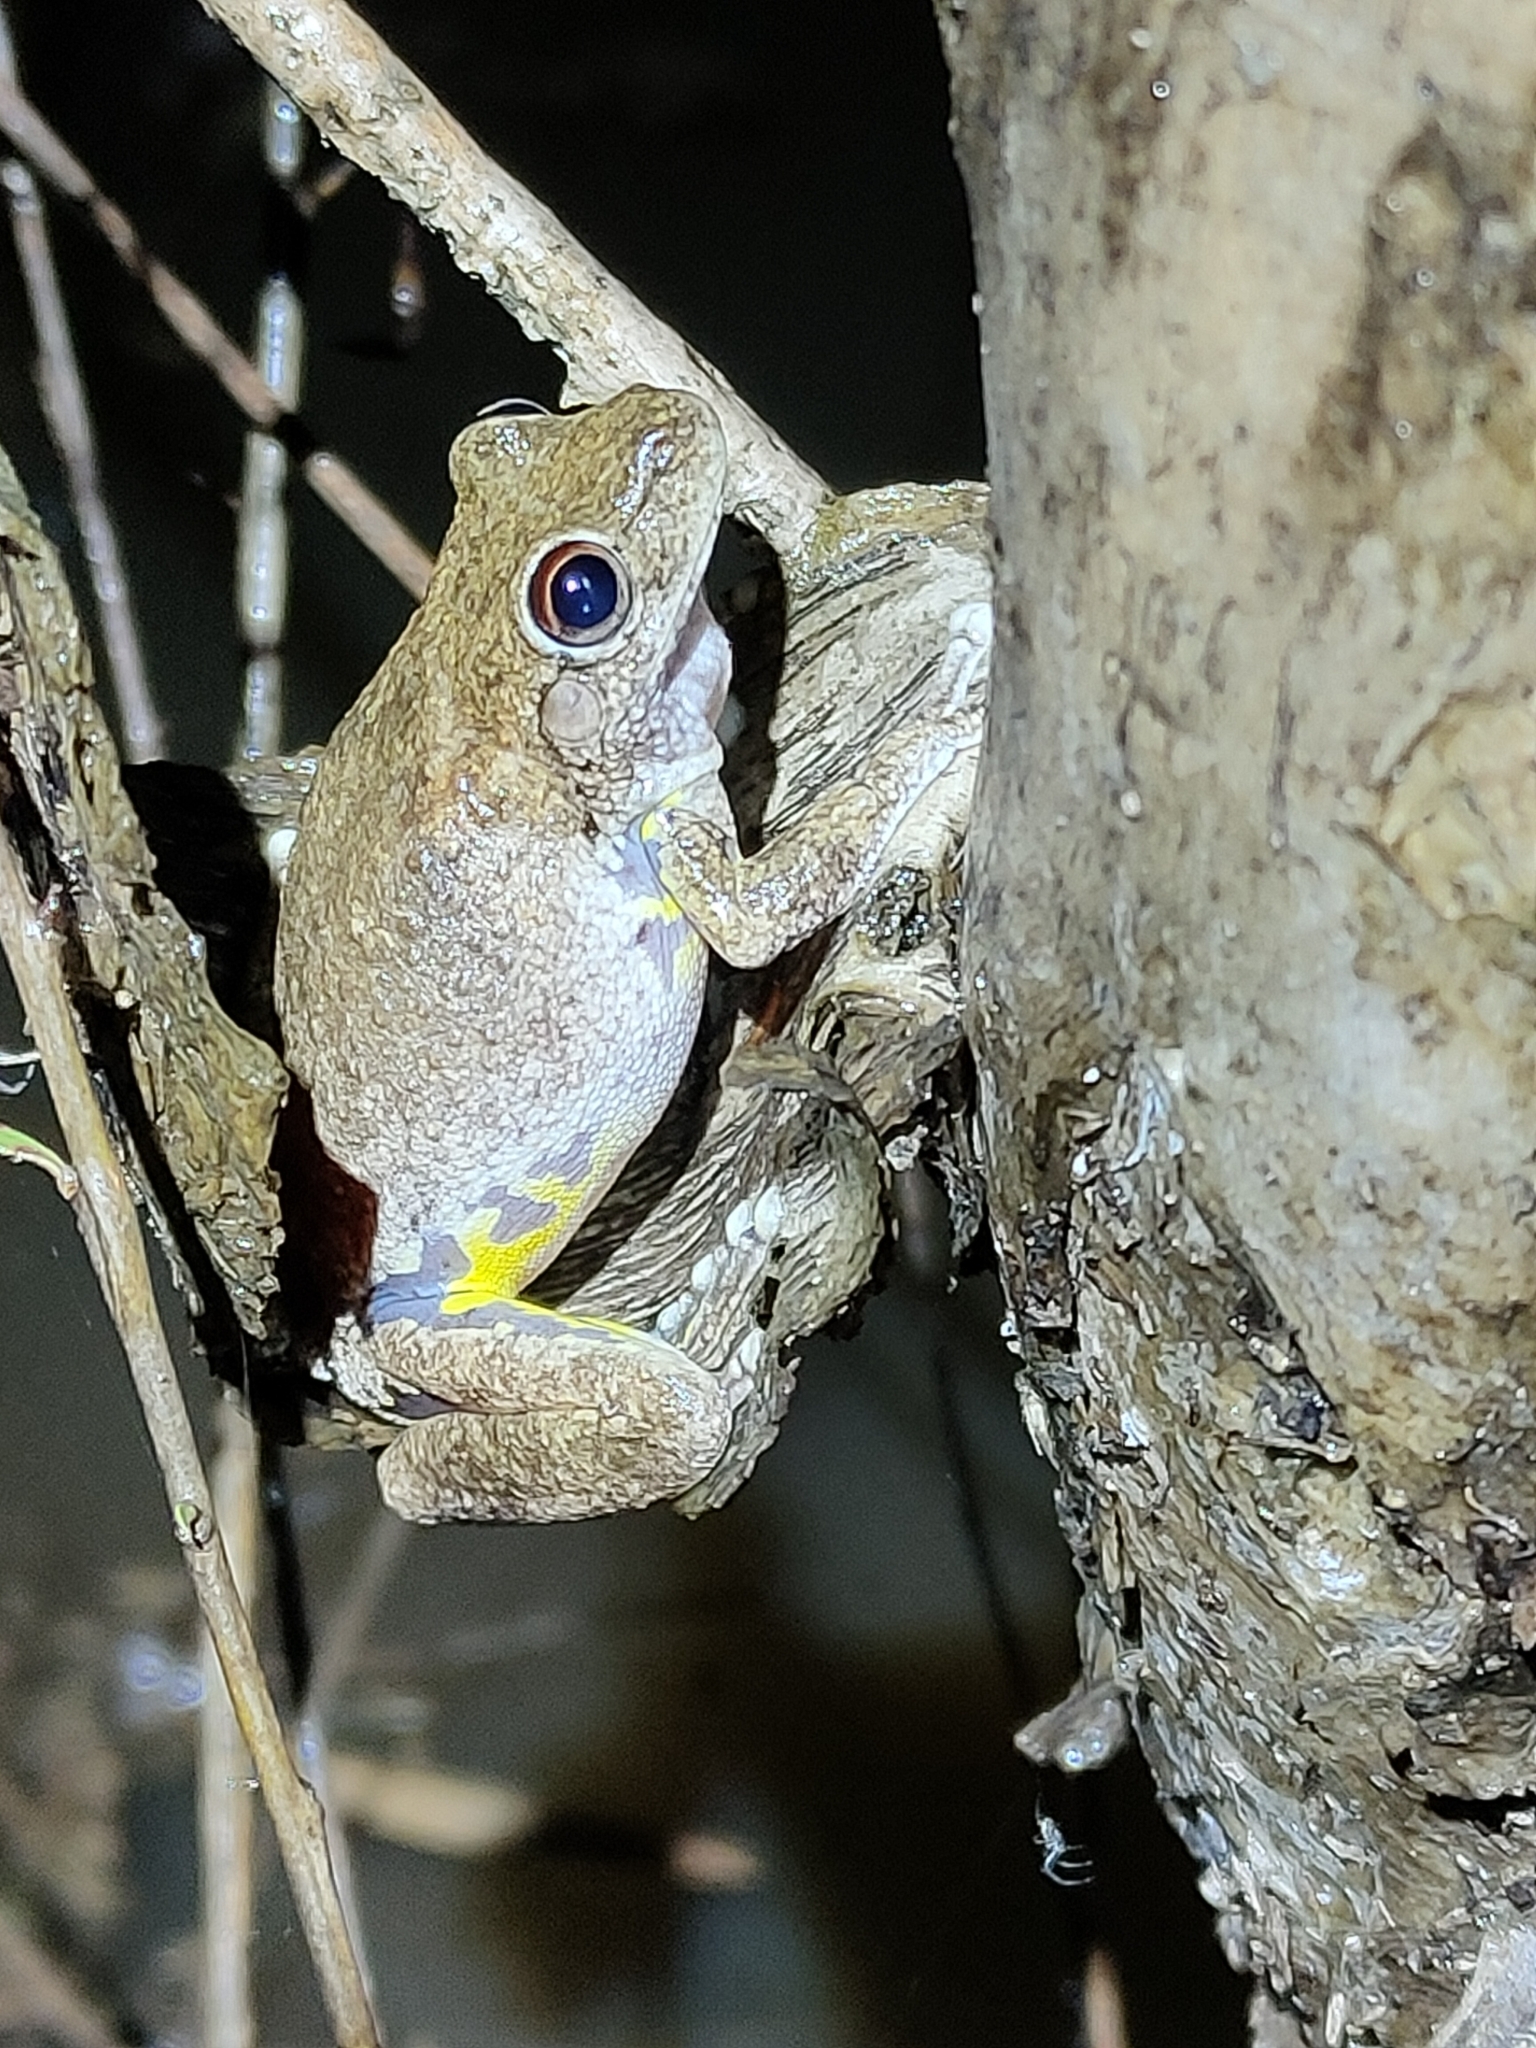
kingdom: Animalia
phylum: Chordata
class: Amphibia
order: Anura
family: Pelodryadidae
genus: Litoria
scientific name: Litoria rothii
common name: Roth’s tree frog
